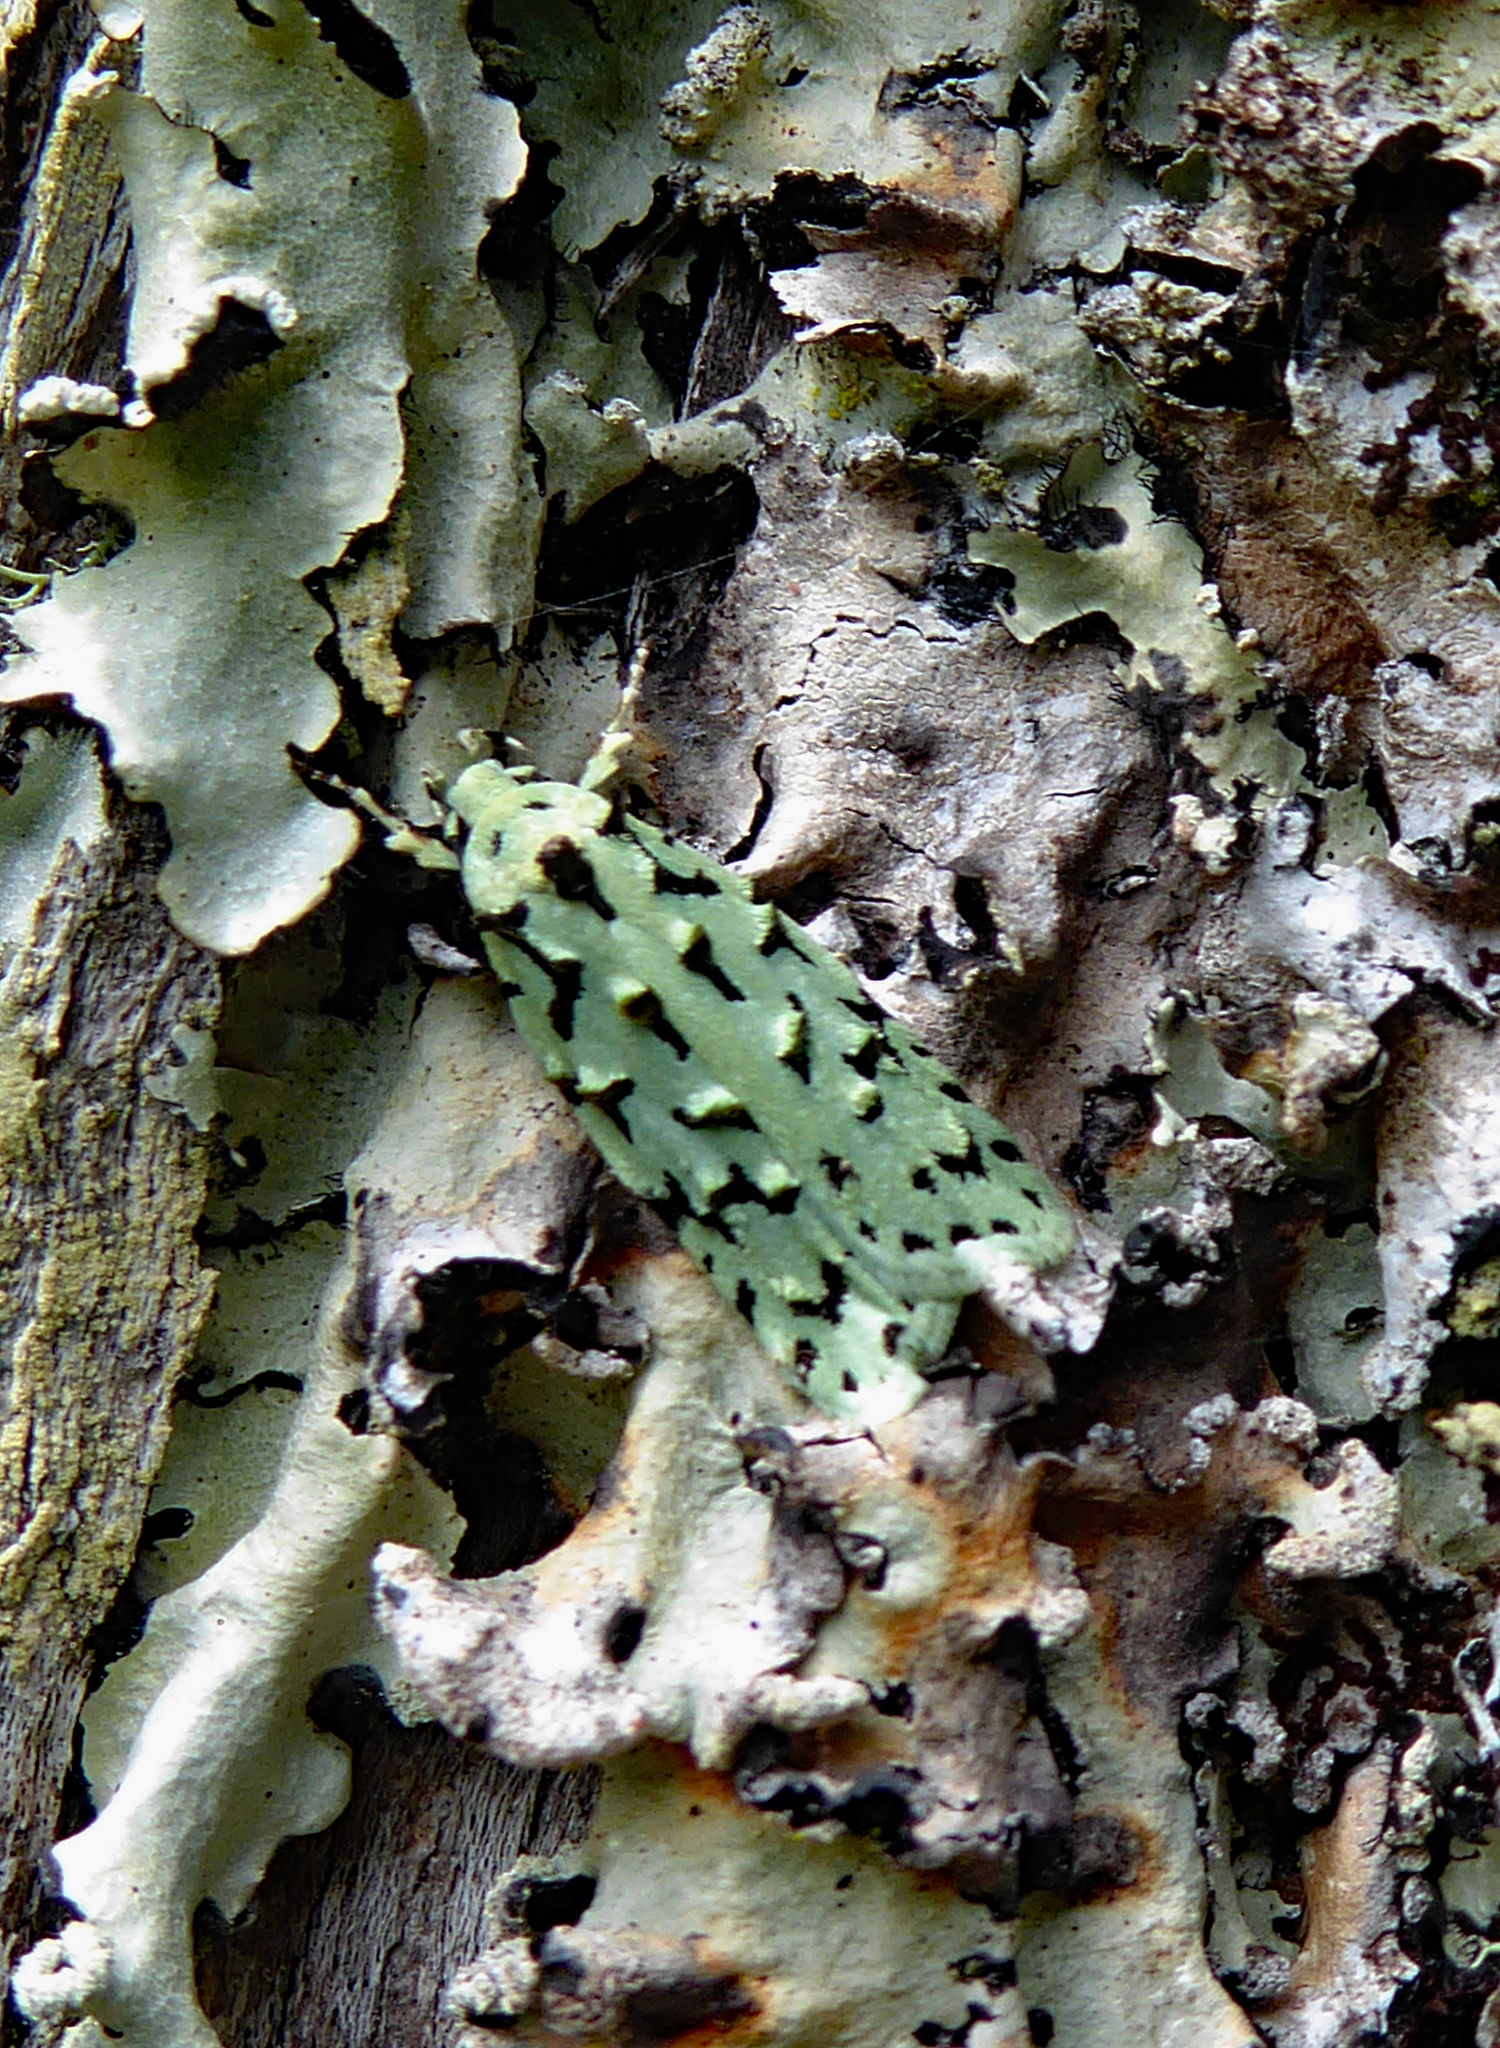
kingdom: Animalia
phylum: Arthropoda
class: Insecta
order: Lepidoptera
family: Oecophoridae
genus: Izatha
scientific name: Izatha peroneanella
